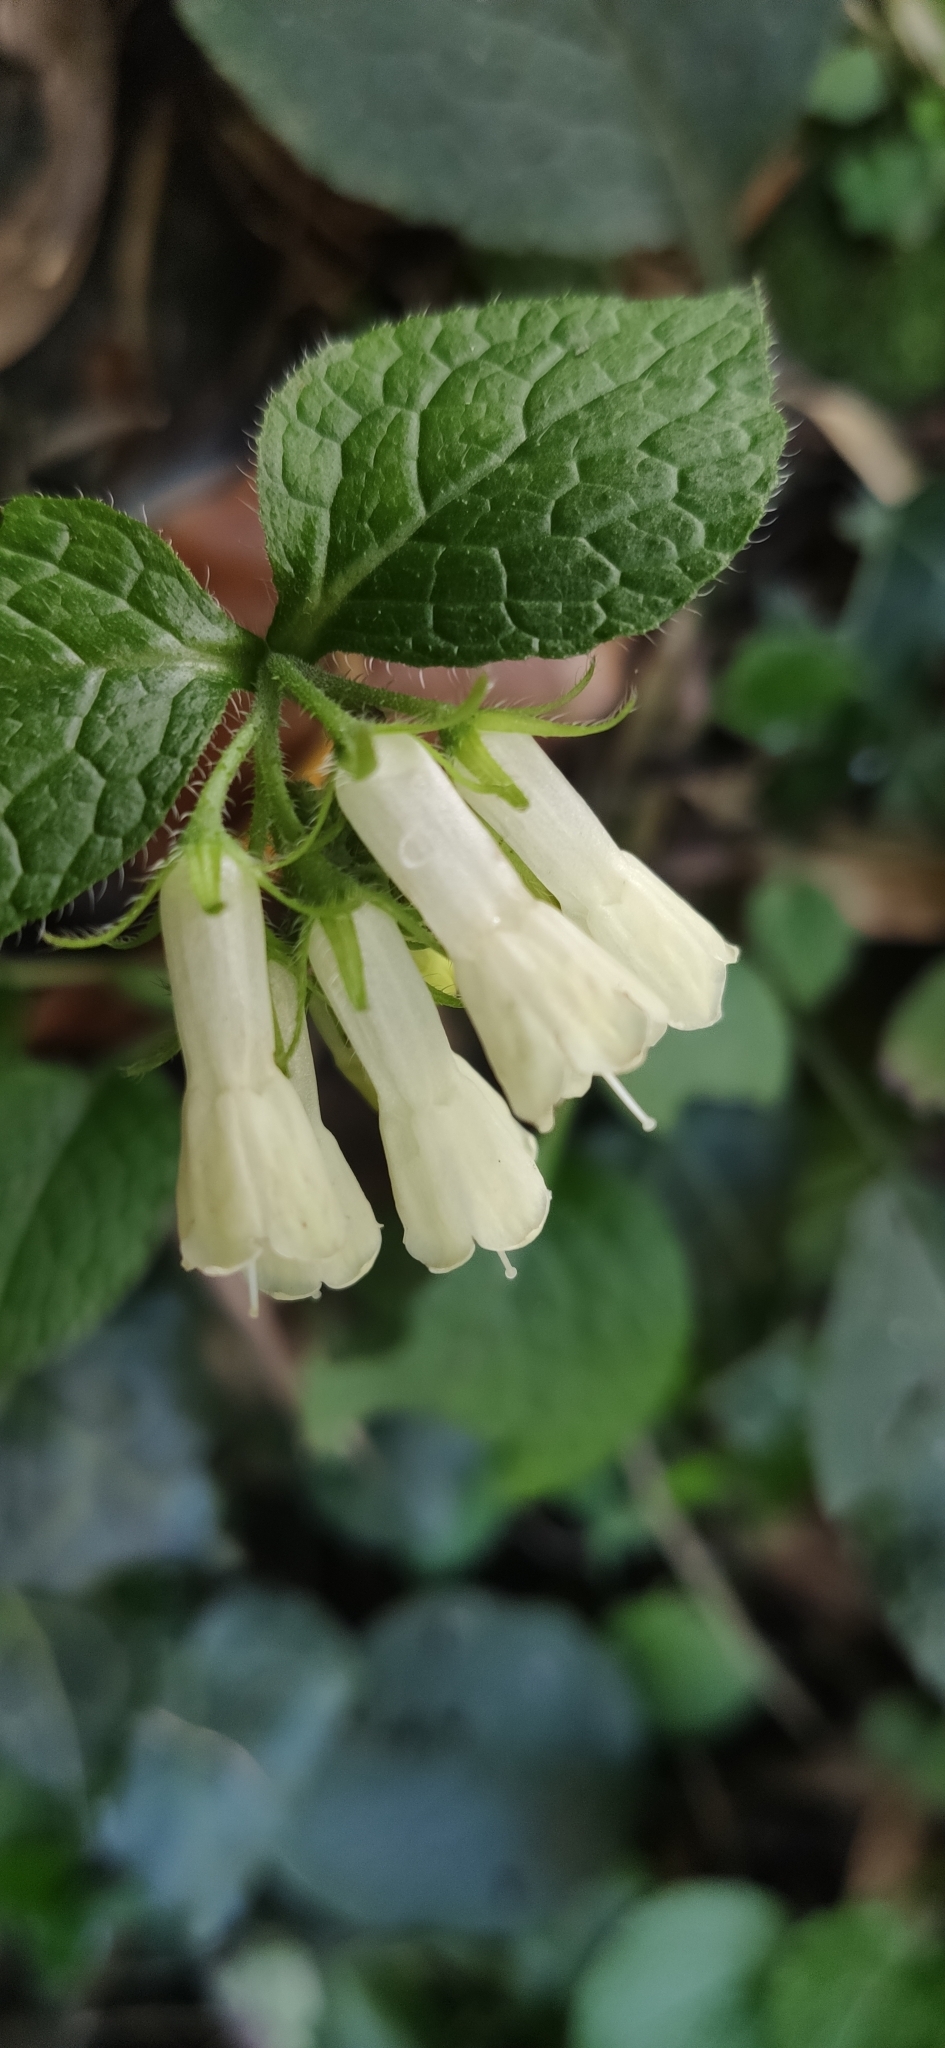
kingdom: Plantae
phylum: Tracheophyta
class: Magnoliopsida
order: Boraginales
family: Boraginaceae
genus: Symphytum
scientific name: Symphytum grandiflorum
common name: Creeping comfrey
